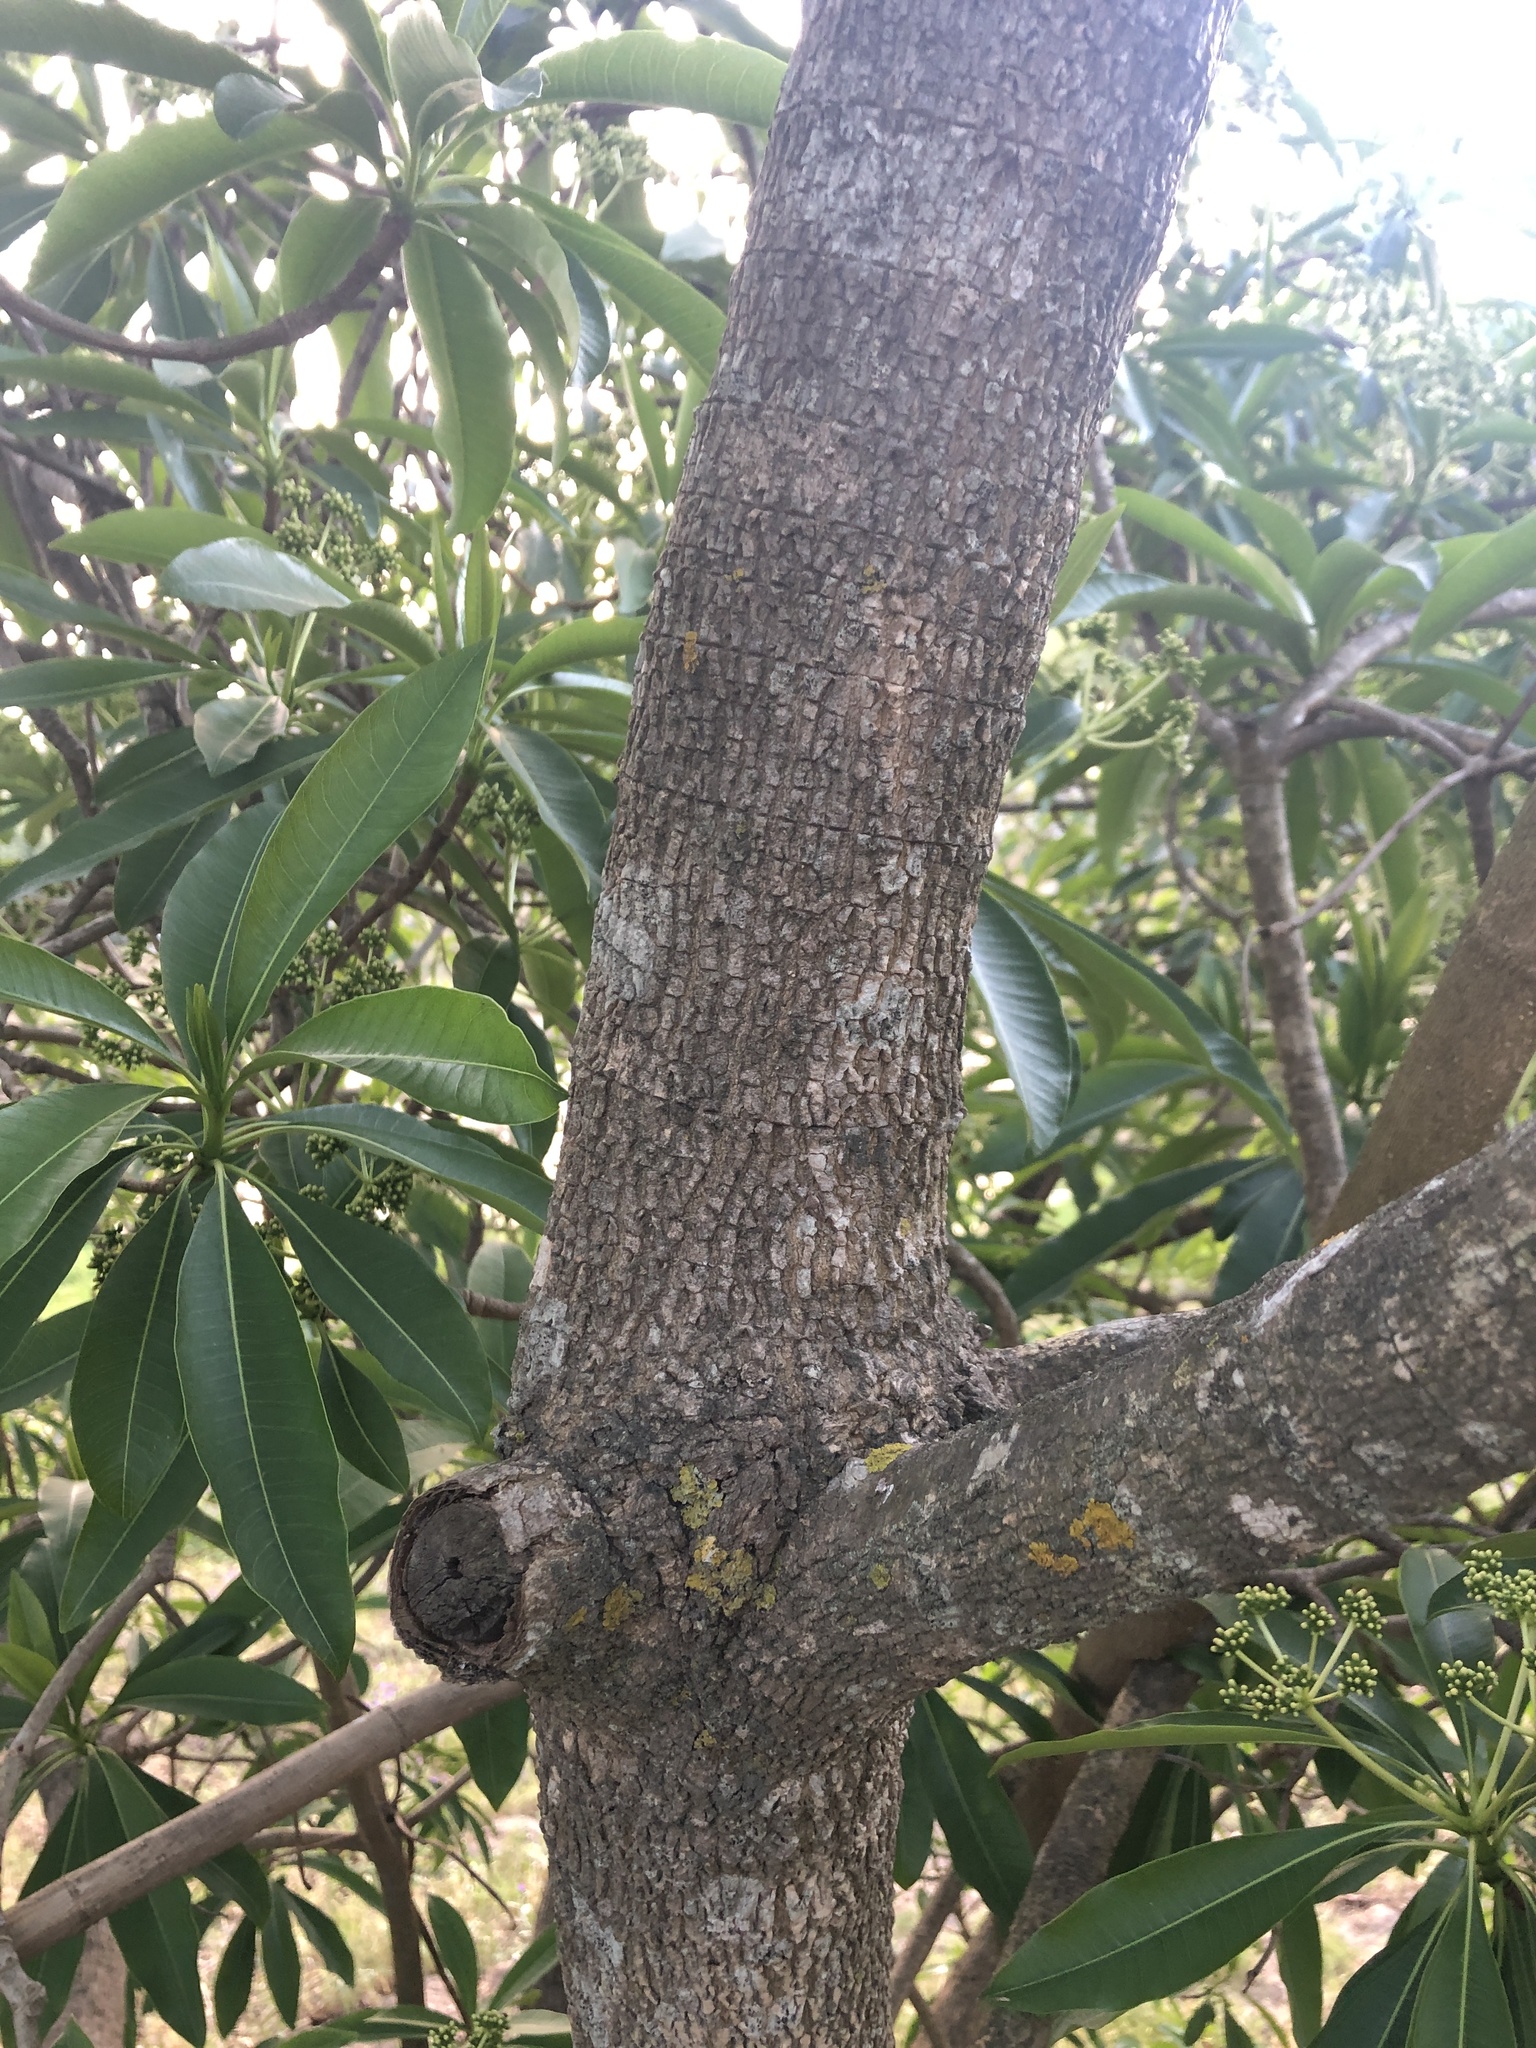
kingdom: Plantae
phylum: Tracheophyta
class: Magnoliopsida
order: Gentianales
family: Apocynaceae
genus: Rauvolfia
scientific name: Rauvolfia caffra
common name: Quininetree
